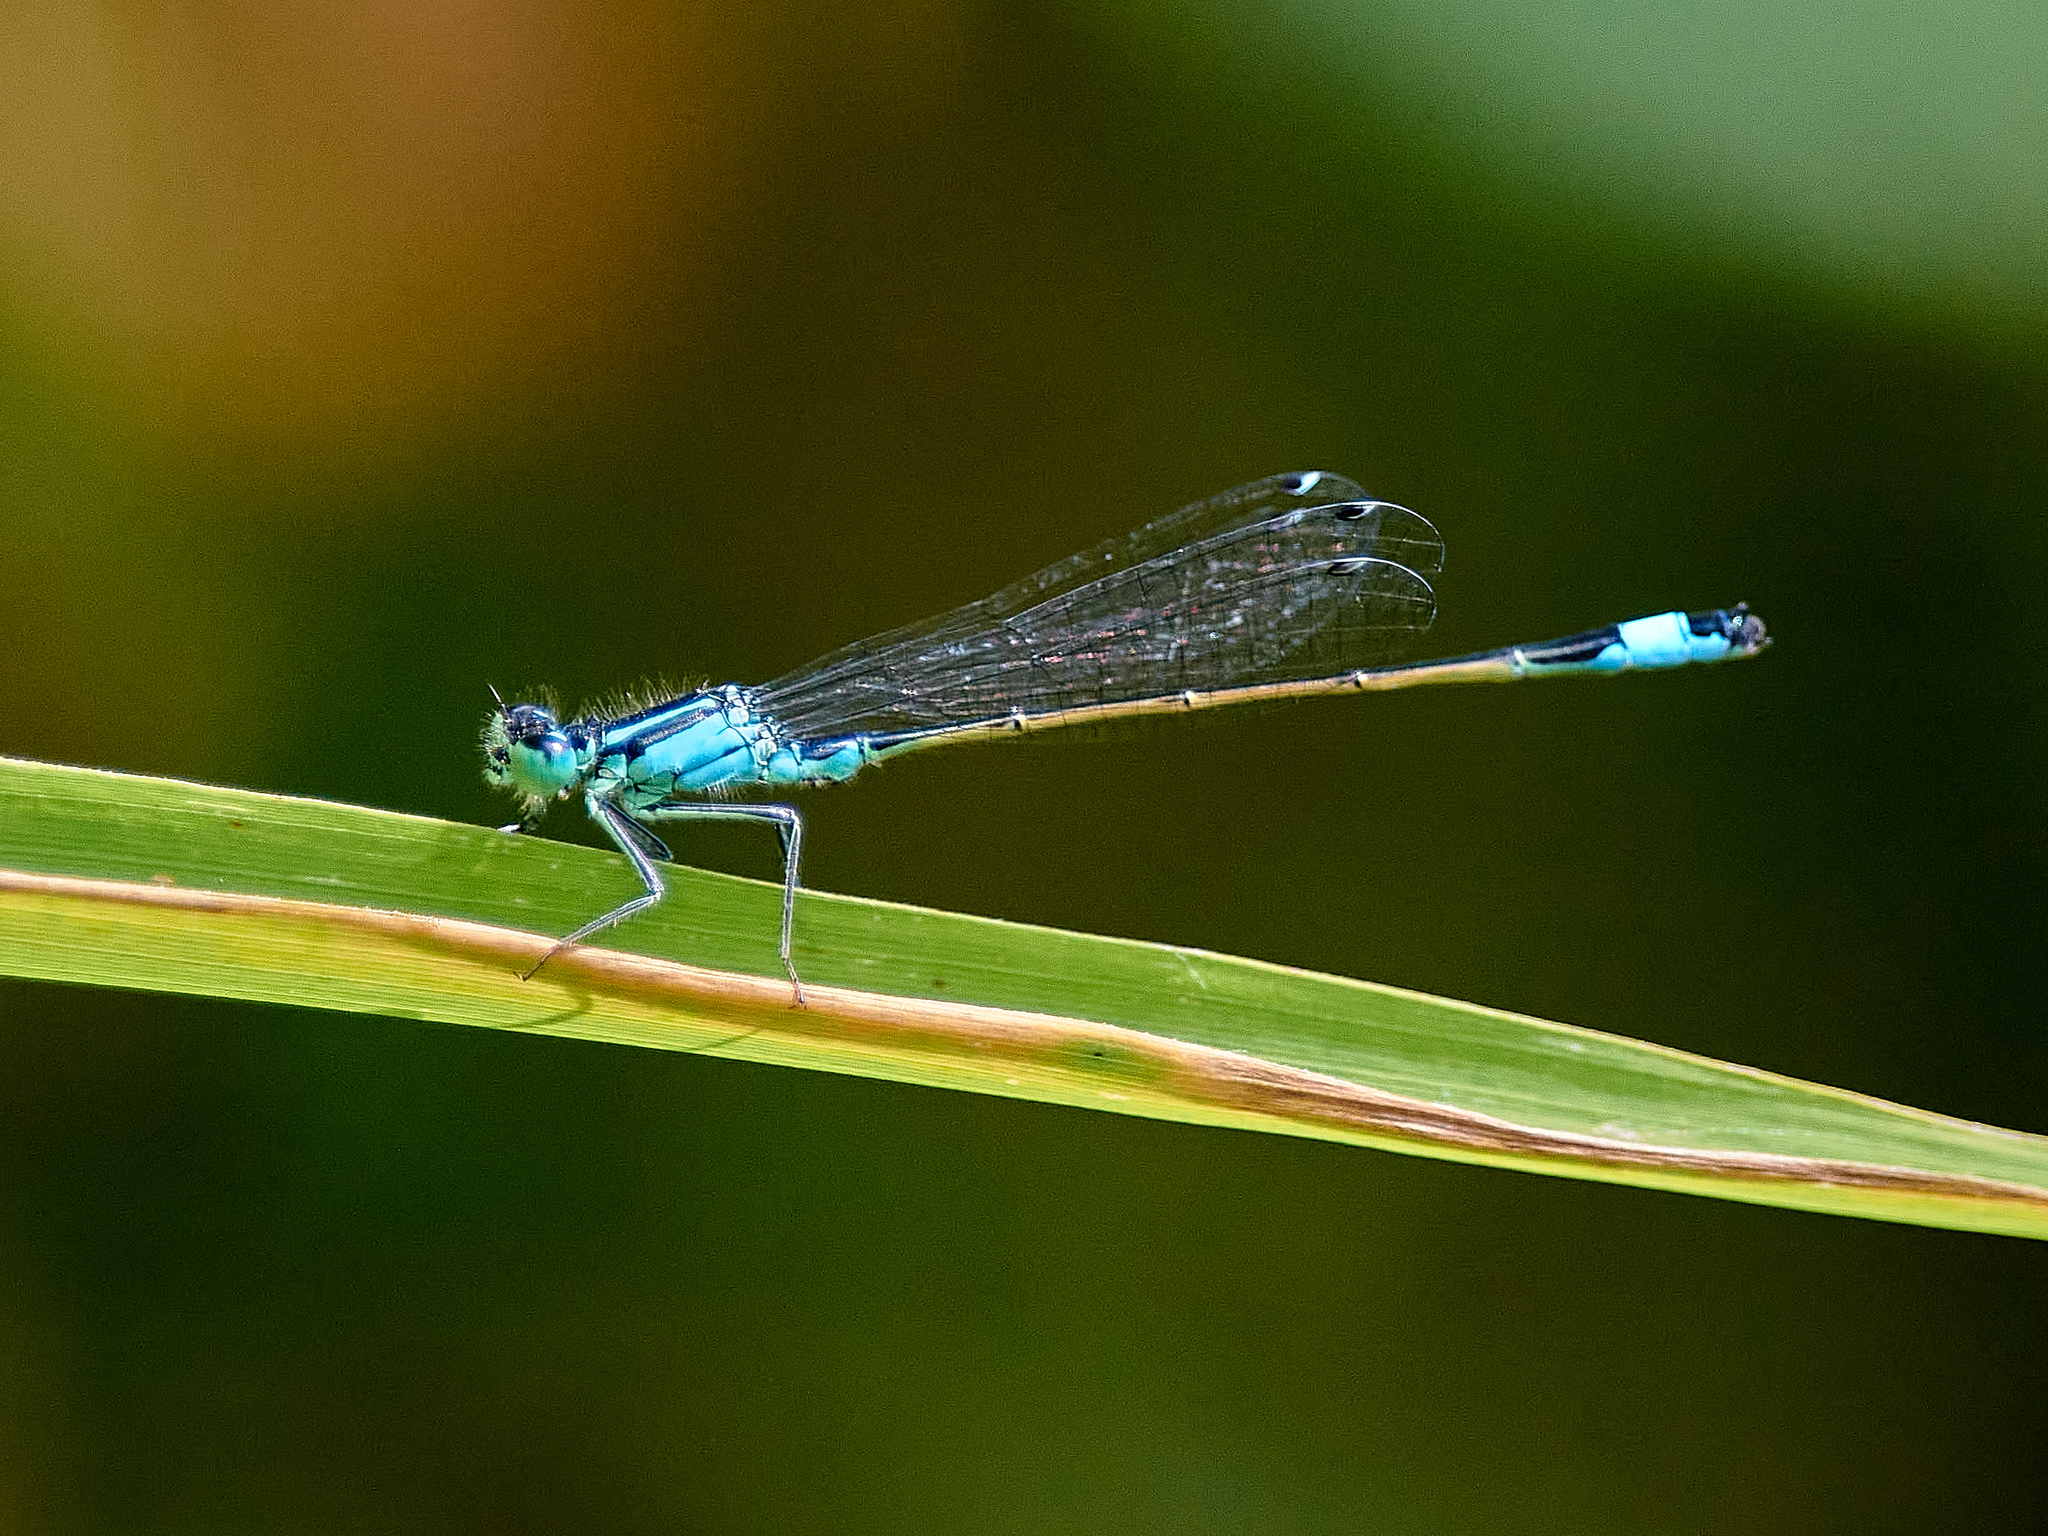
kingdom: Animalia
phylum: Arthropoda
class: Insecta
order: Odonata
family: Coenagrionidae
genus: Ischnura
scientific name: Ischnura elegans
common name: Blue-tailed damselfly
